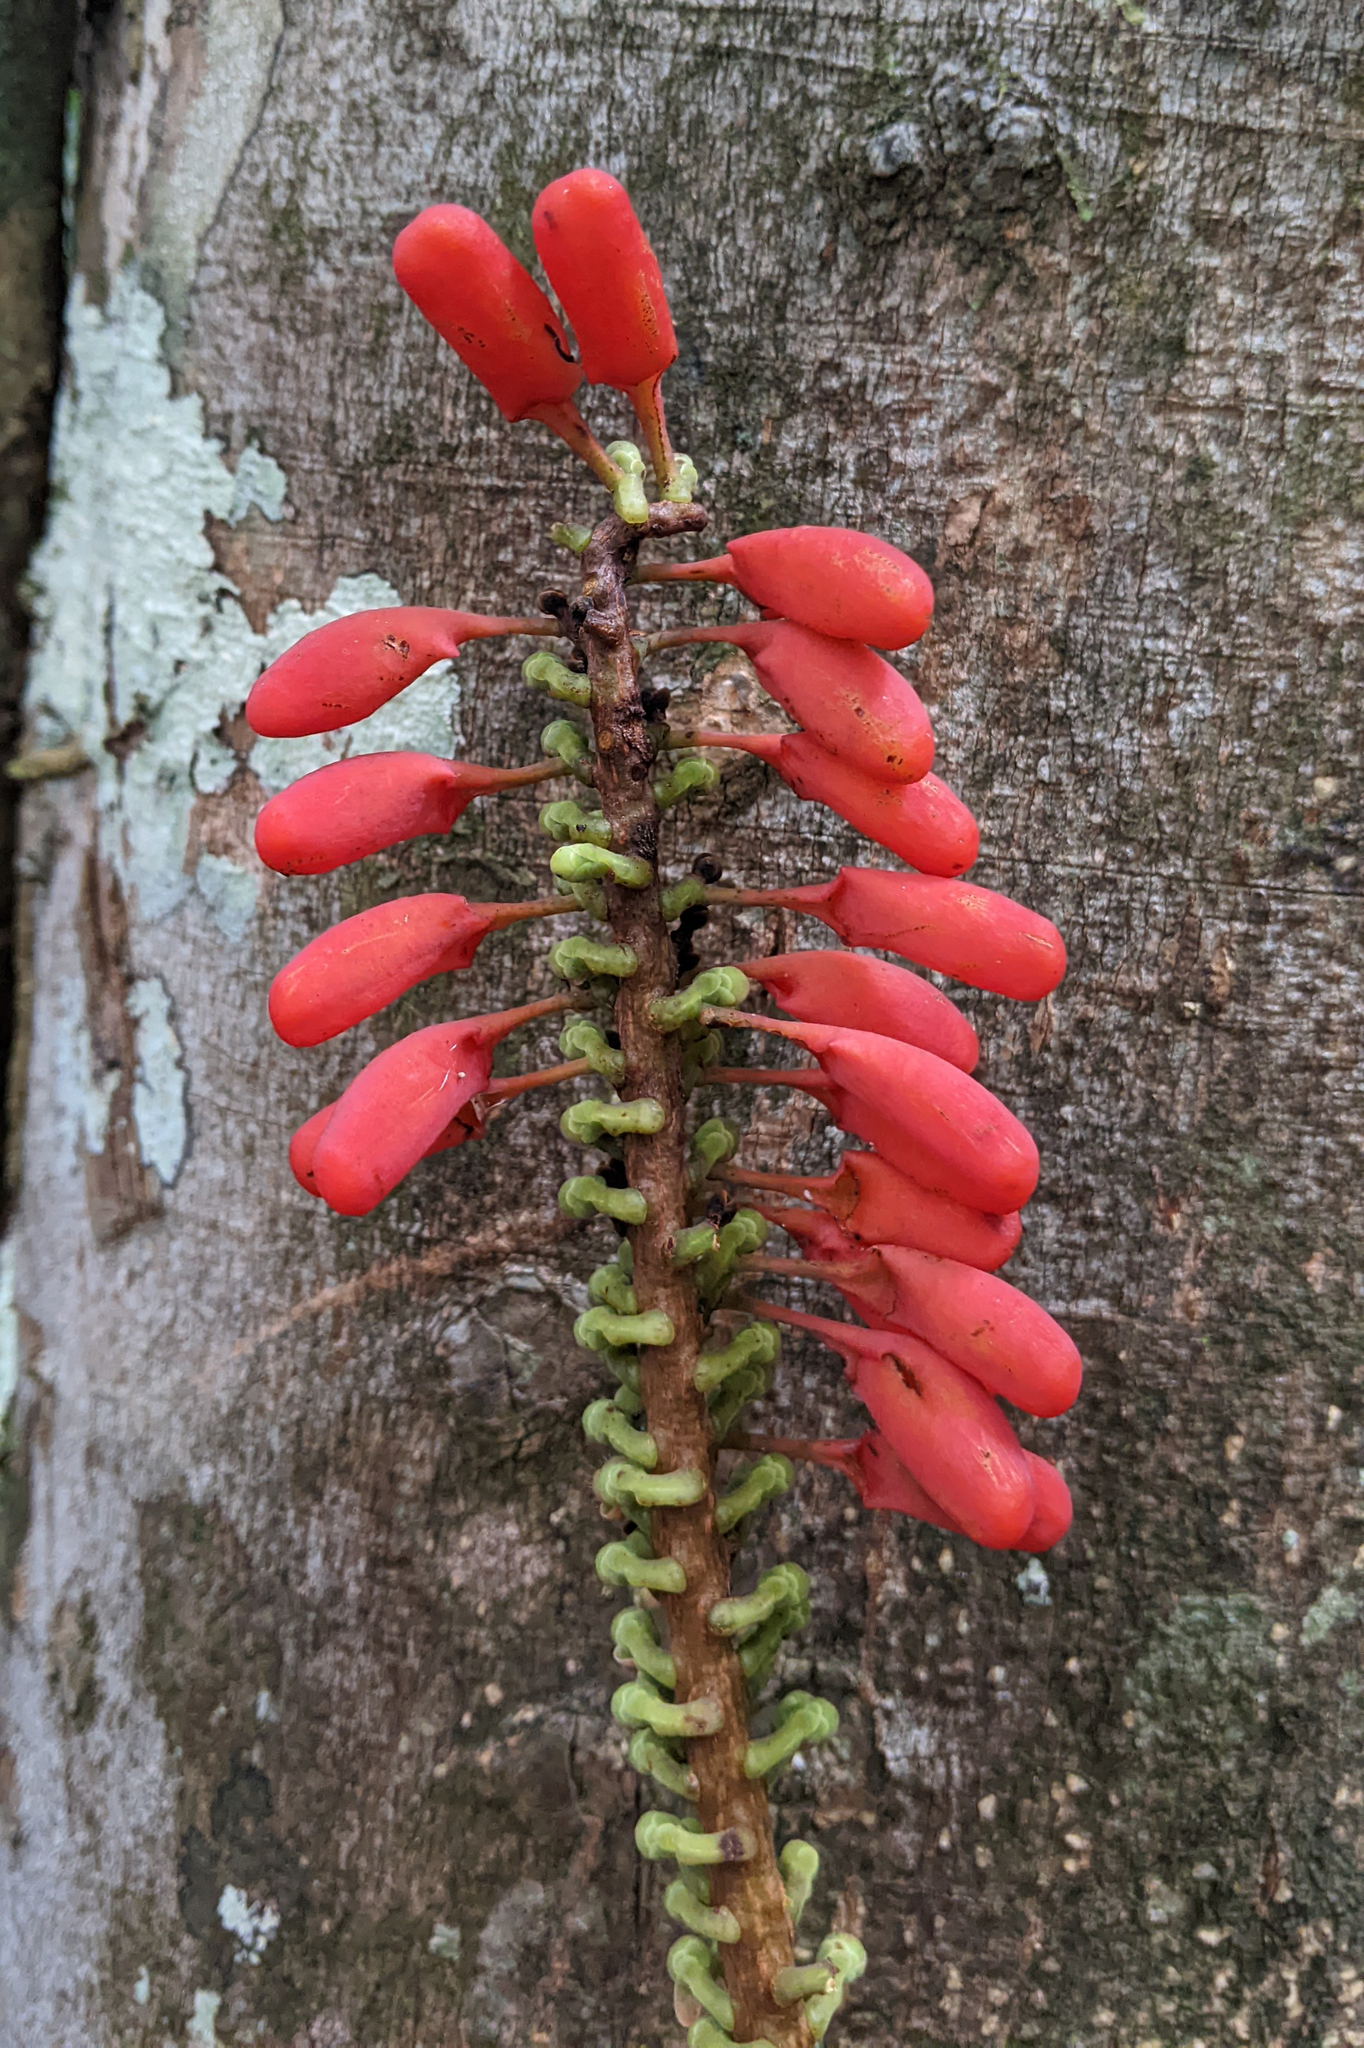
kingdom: Plantae
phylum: Tracheophyta
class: Magnoliopsida
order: Ericales
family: Marcgraviaceae
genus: Norantea
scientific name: Norantea guianensis
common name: Red hot poker vine
